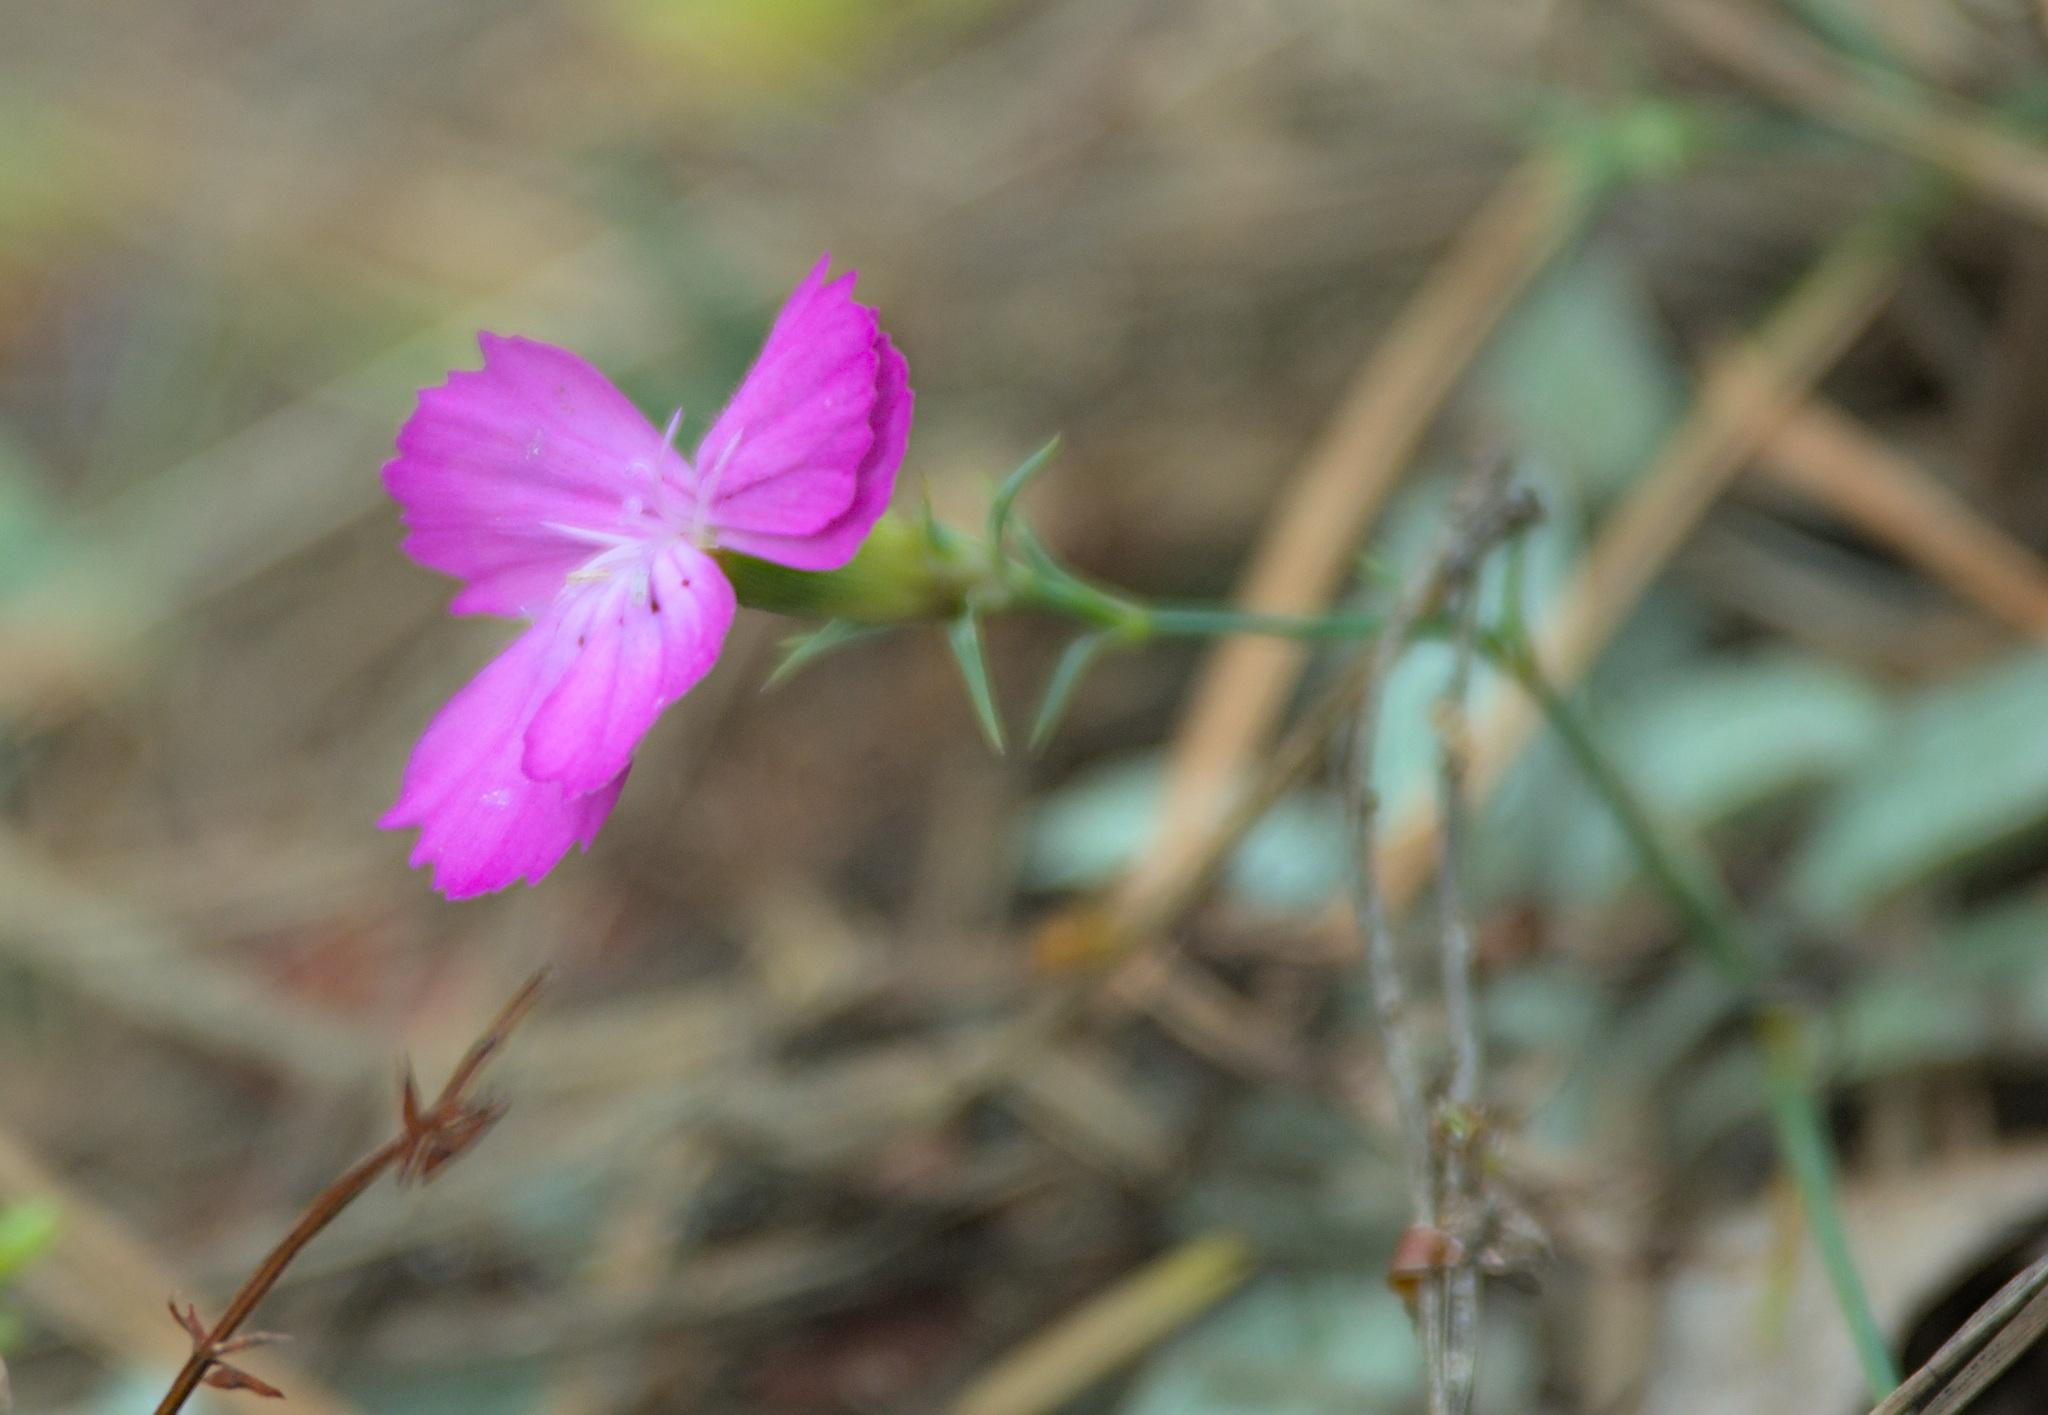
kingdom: Plantae
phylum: Tracheophyta
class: Magnoliopsida
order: Caryophyllales
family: Caryophyllaceae
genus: Dianthus
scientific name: Dianthus chinensis
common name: Rainbow pink
